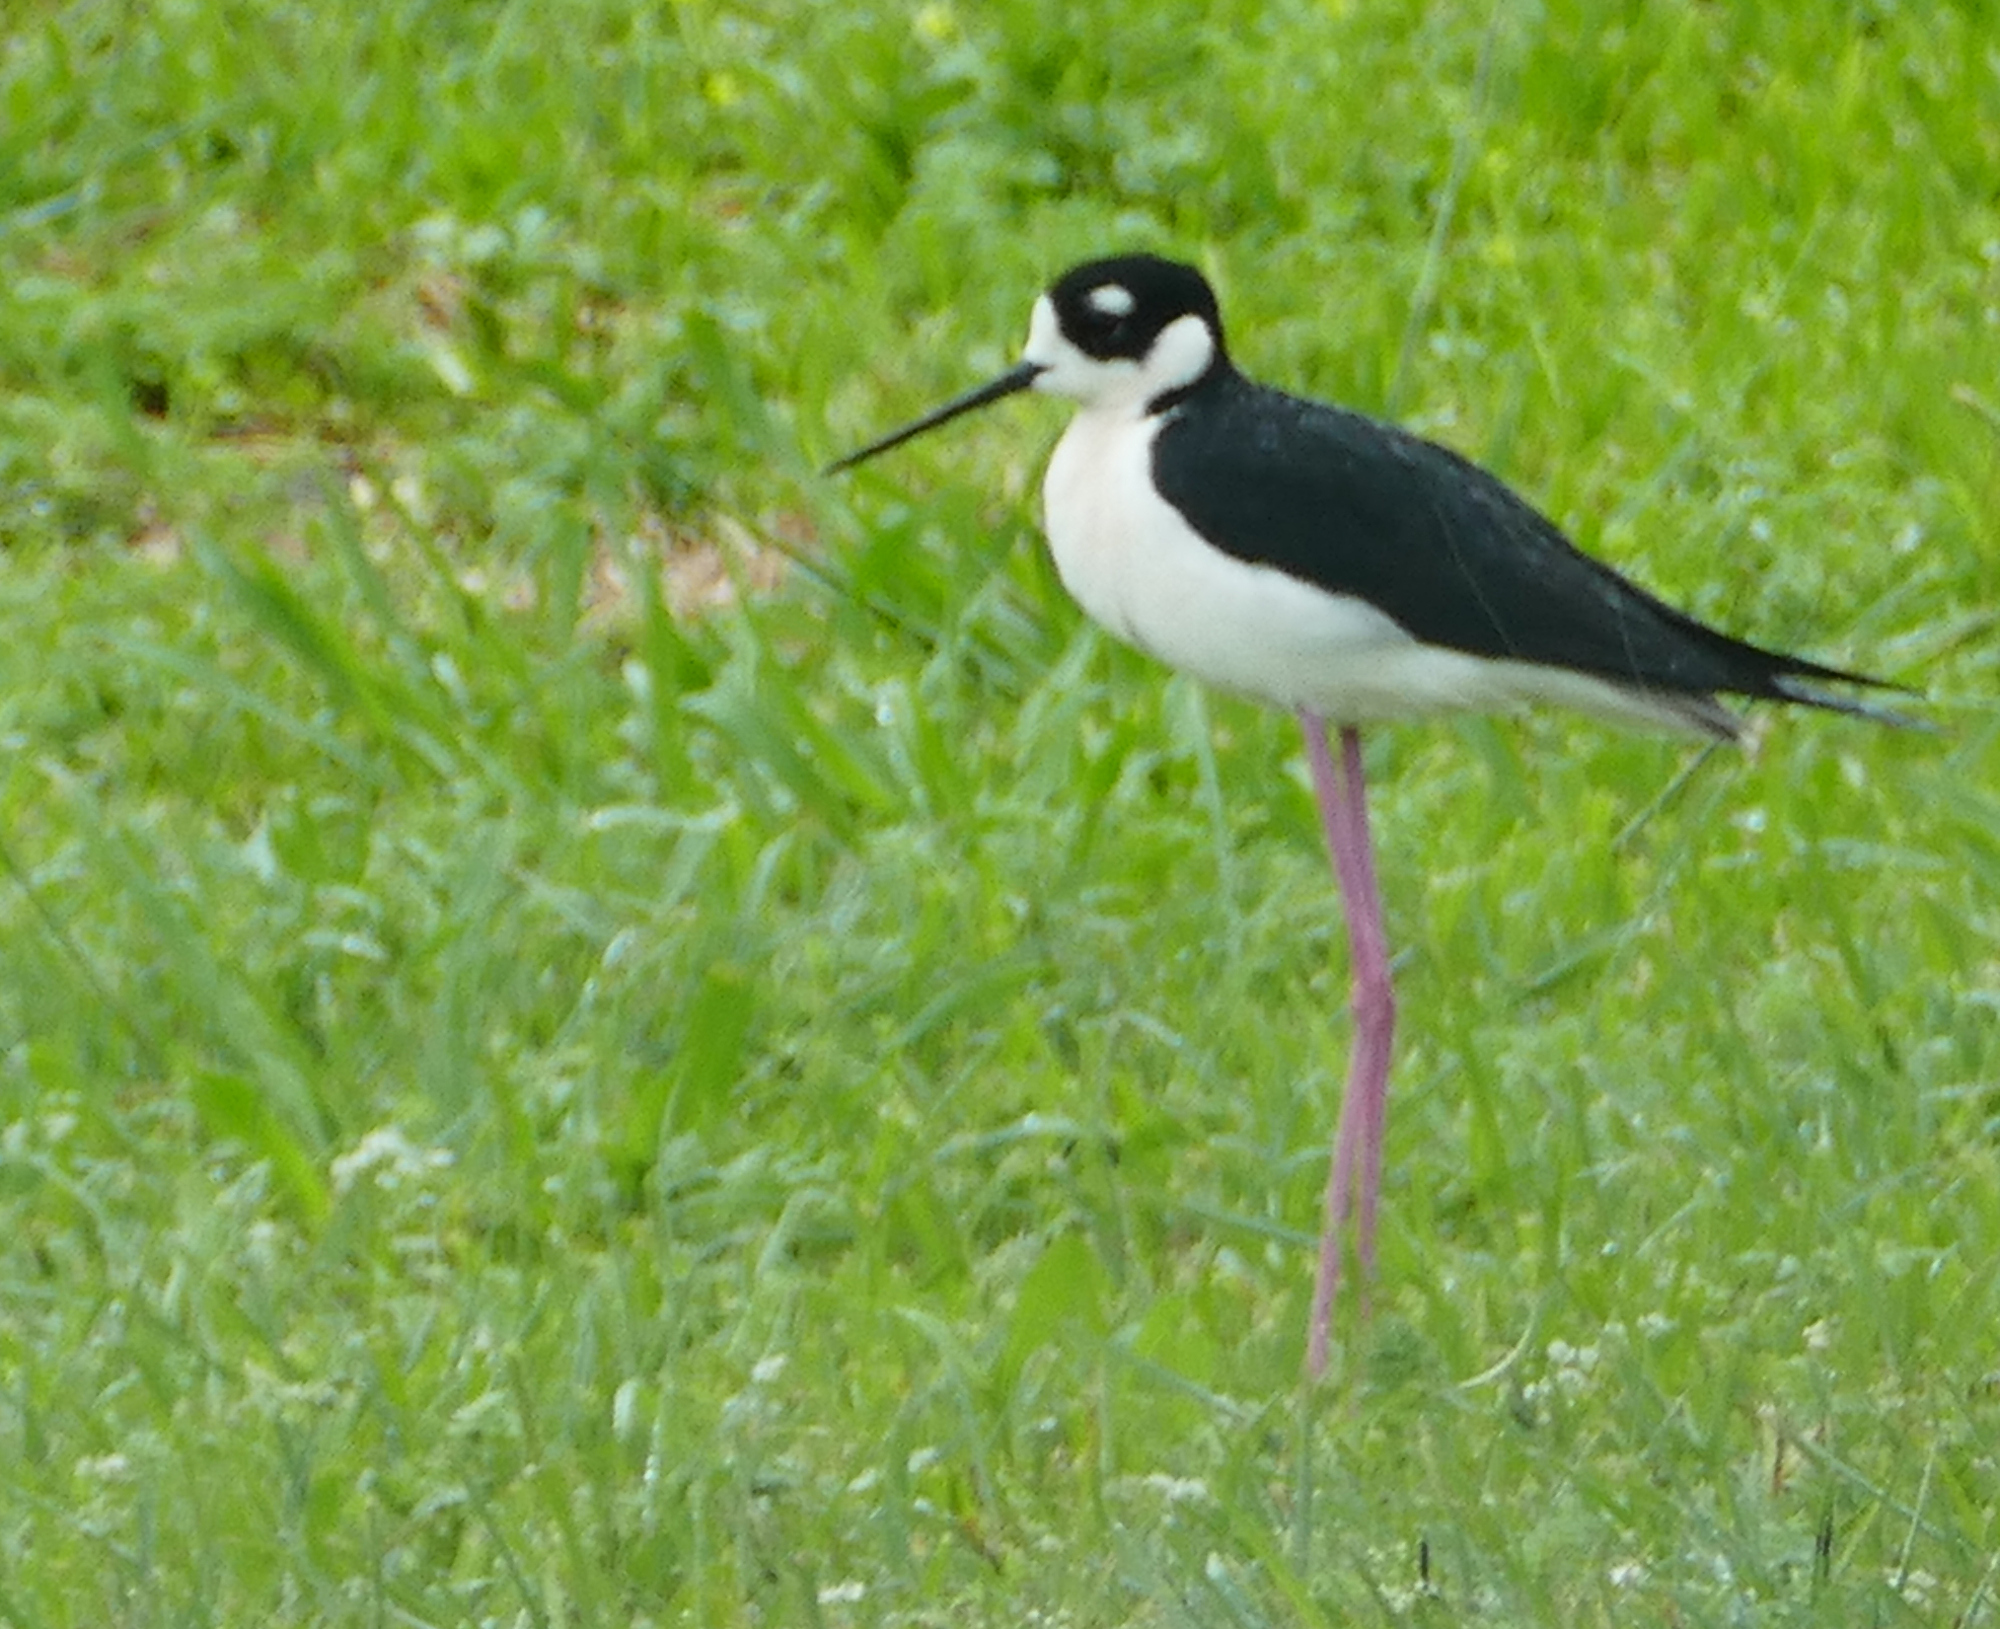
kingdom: Animalia
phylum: Chordata
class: Aves
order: Charadriiformes
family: Recurvirostridae
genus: Himantopus
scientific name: Himantopus mexicanus
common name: Black-necked stilt
